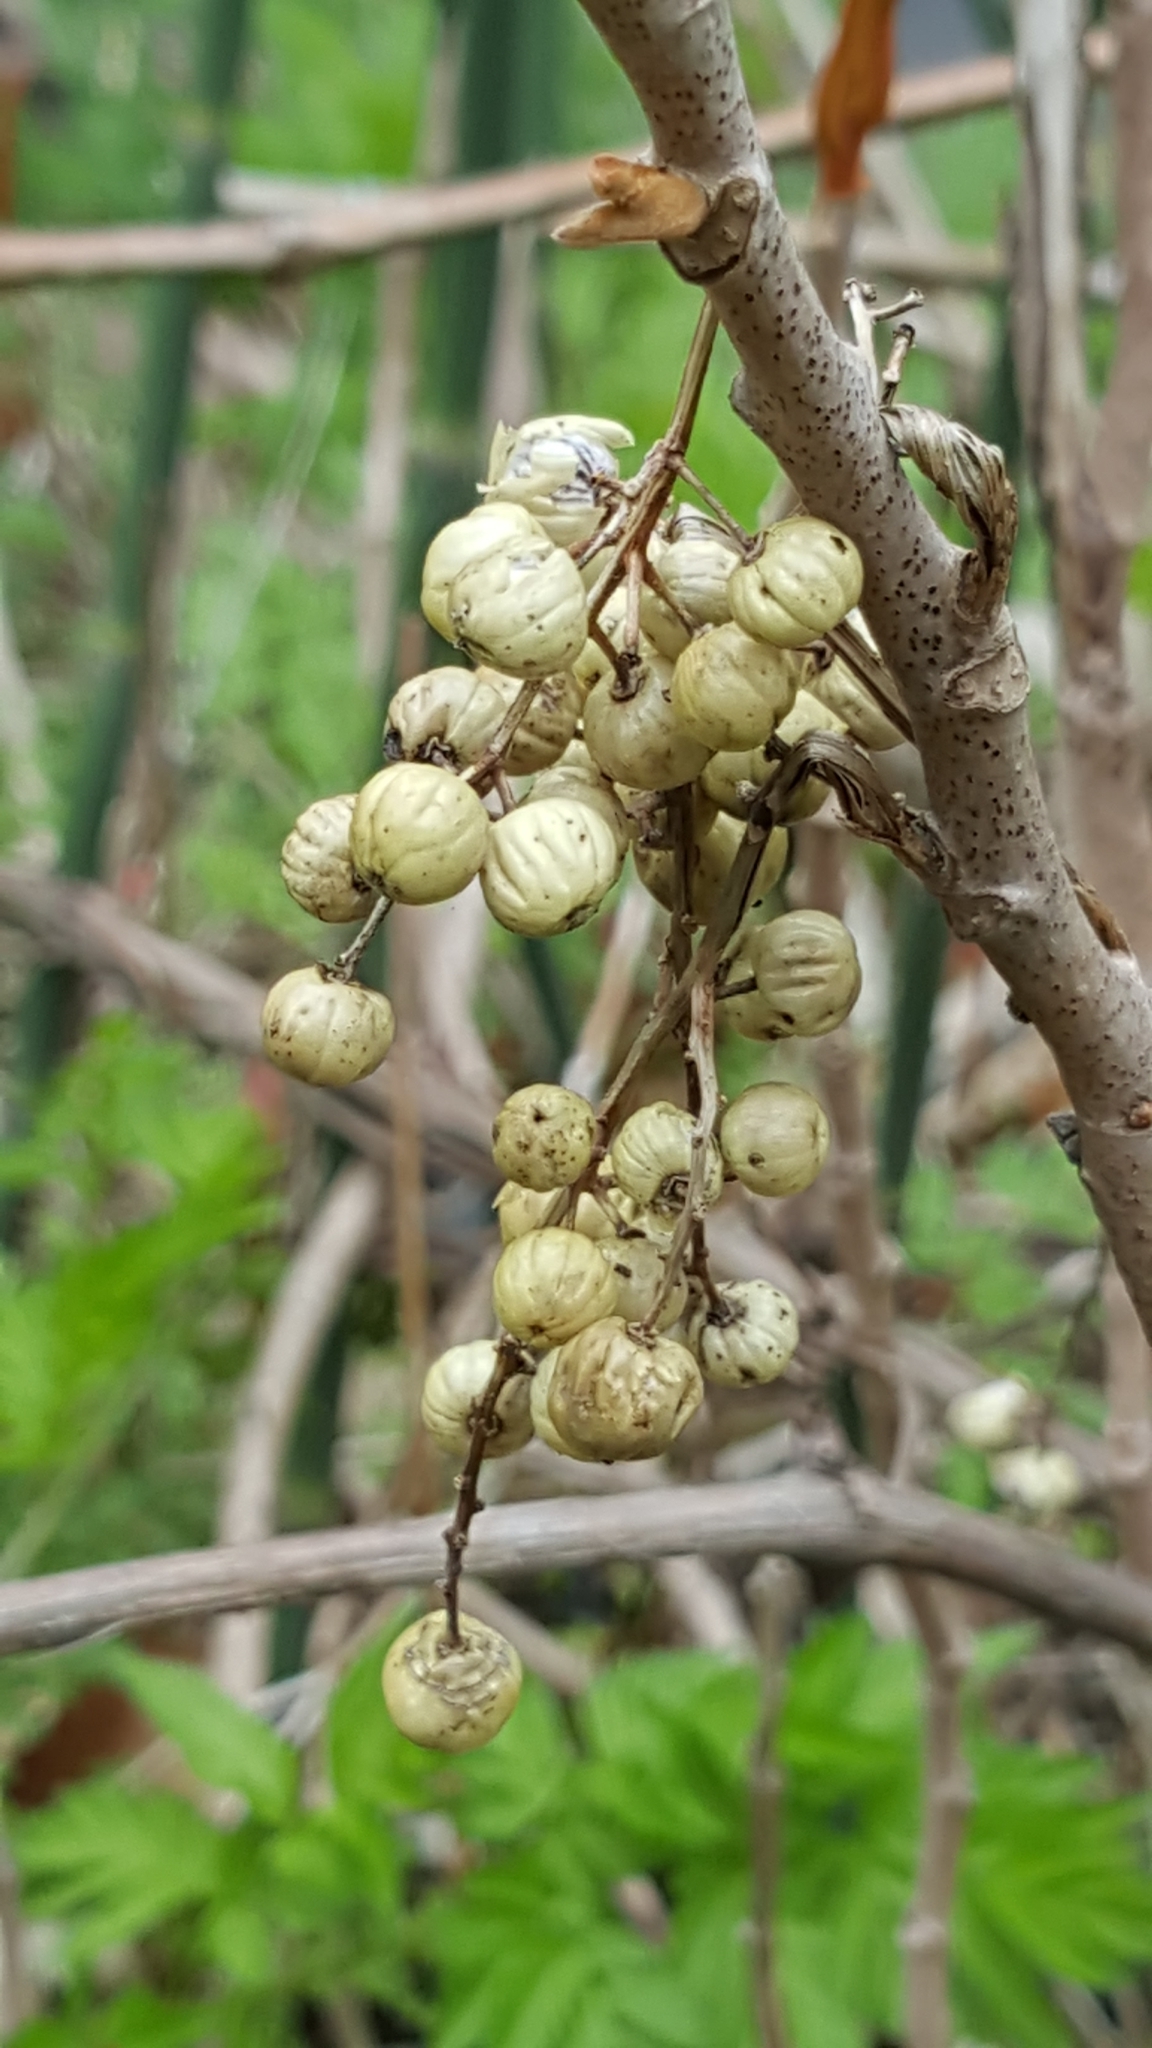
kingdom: Plantae
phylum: Tracheophyta
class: Magnoliopsida
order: Sapindales
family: Anacardiaceae
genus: Toxicodendron
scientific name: Toxicodendron rydbergii
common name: Rydberg's poison-ivy
